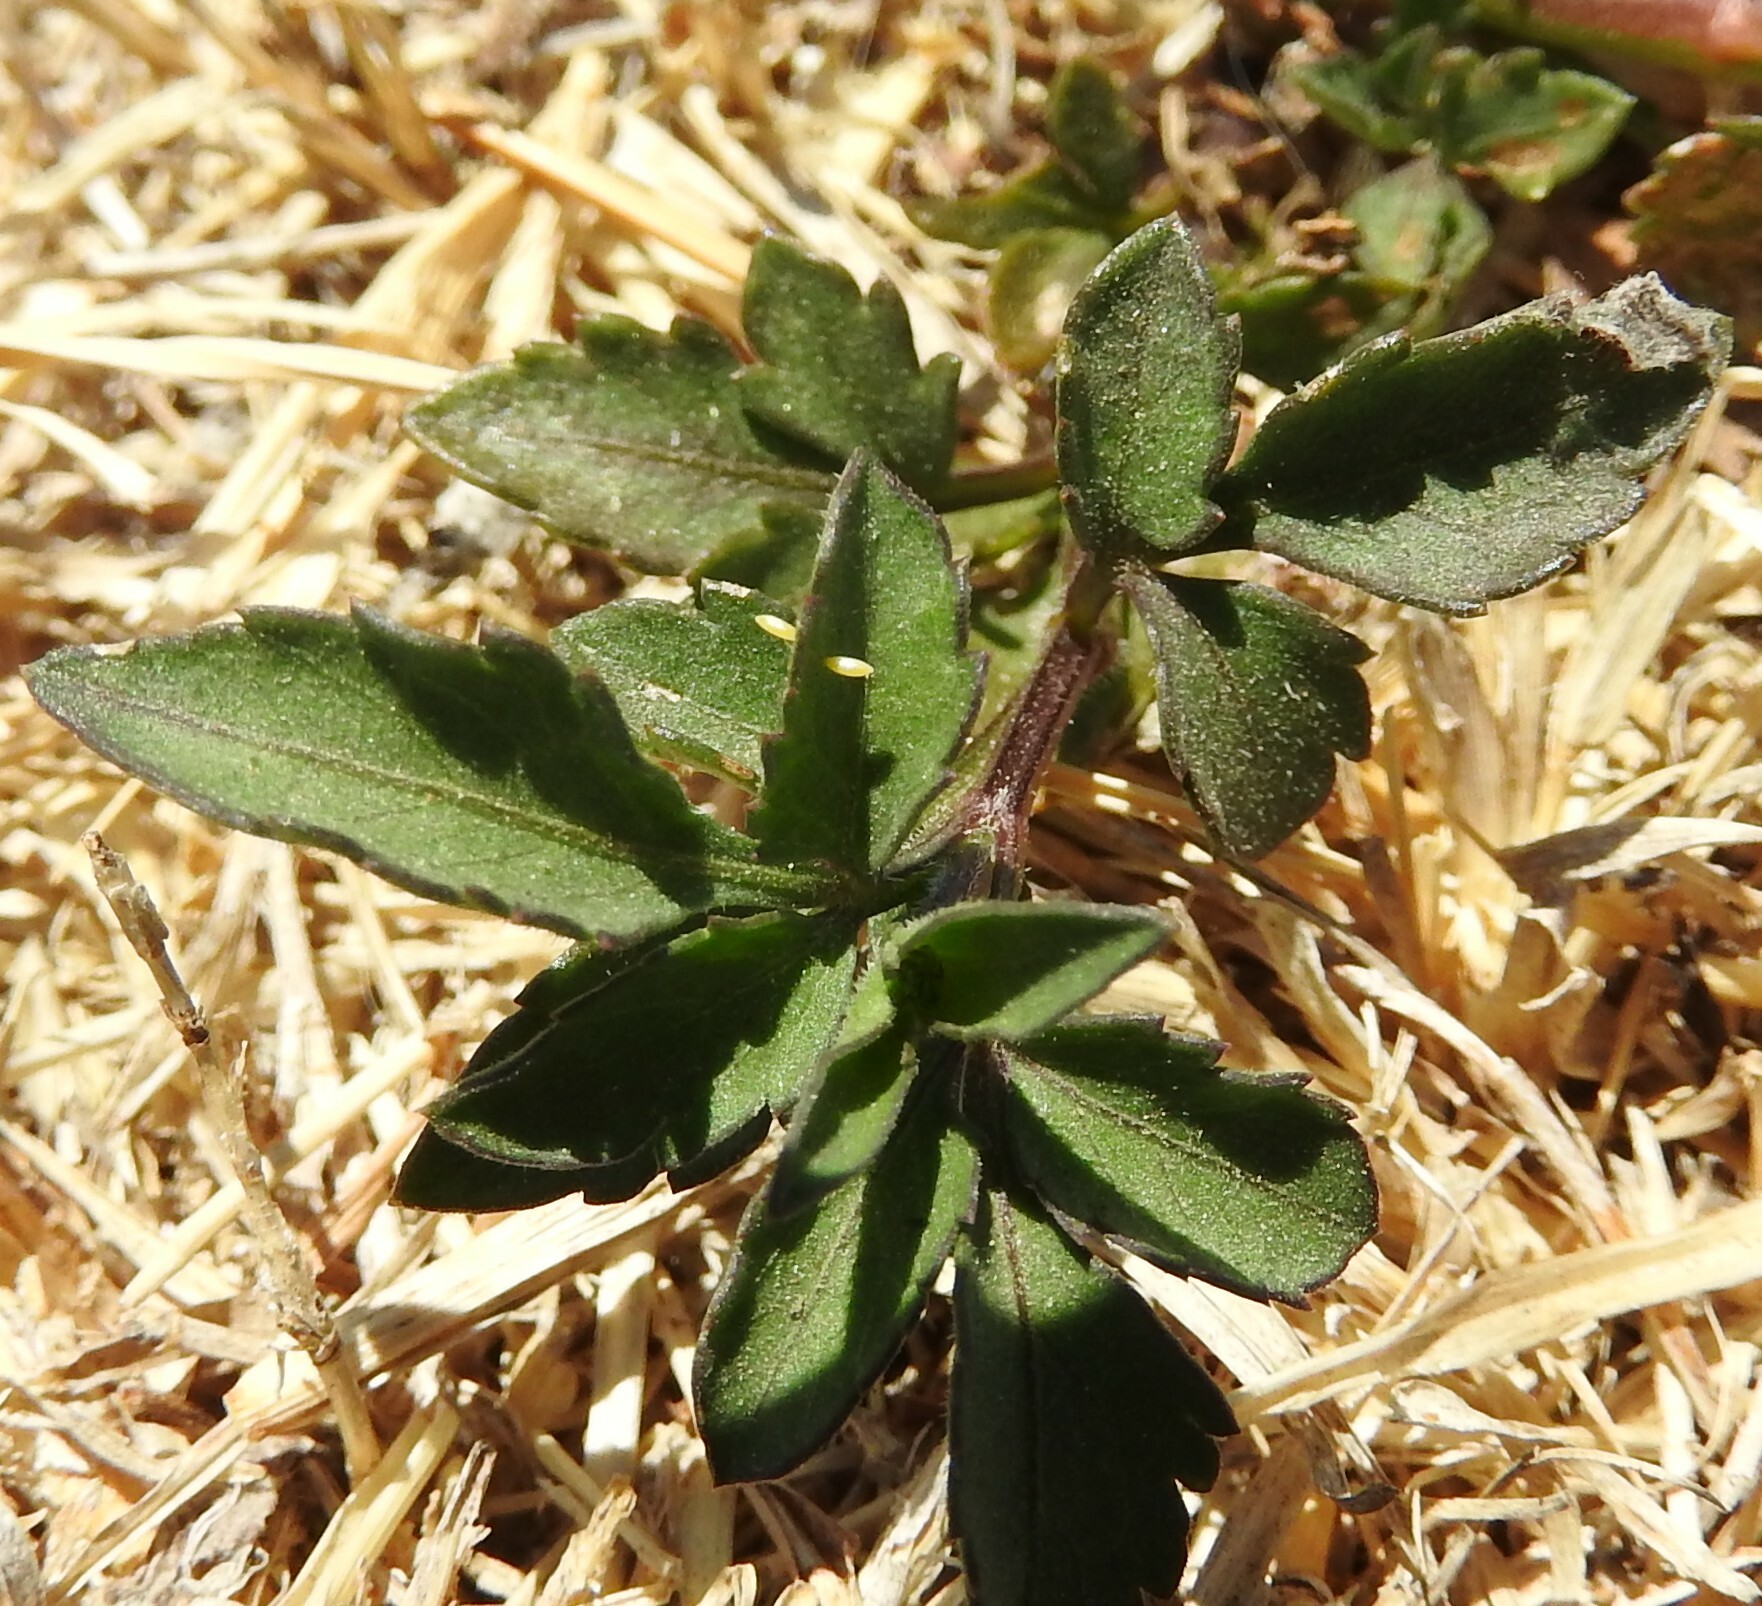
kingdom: Animalia
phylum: Arthropoda
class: Insecta
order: Lepidoptera
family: Pieridae
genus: Nathalis
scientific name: Nathalis iole
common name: Dainty sulphur
